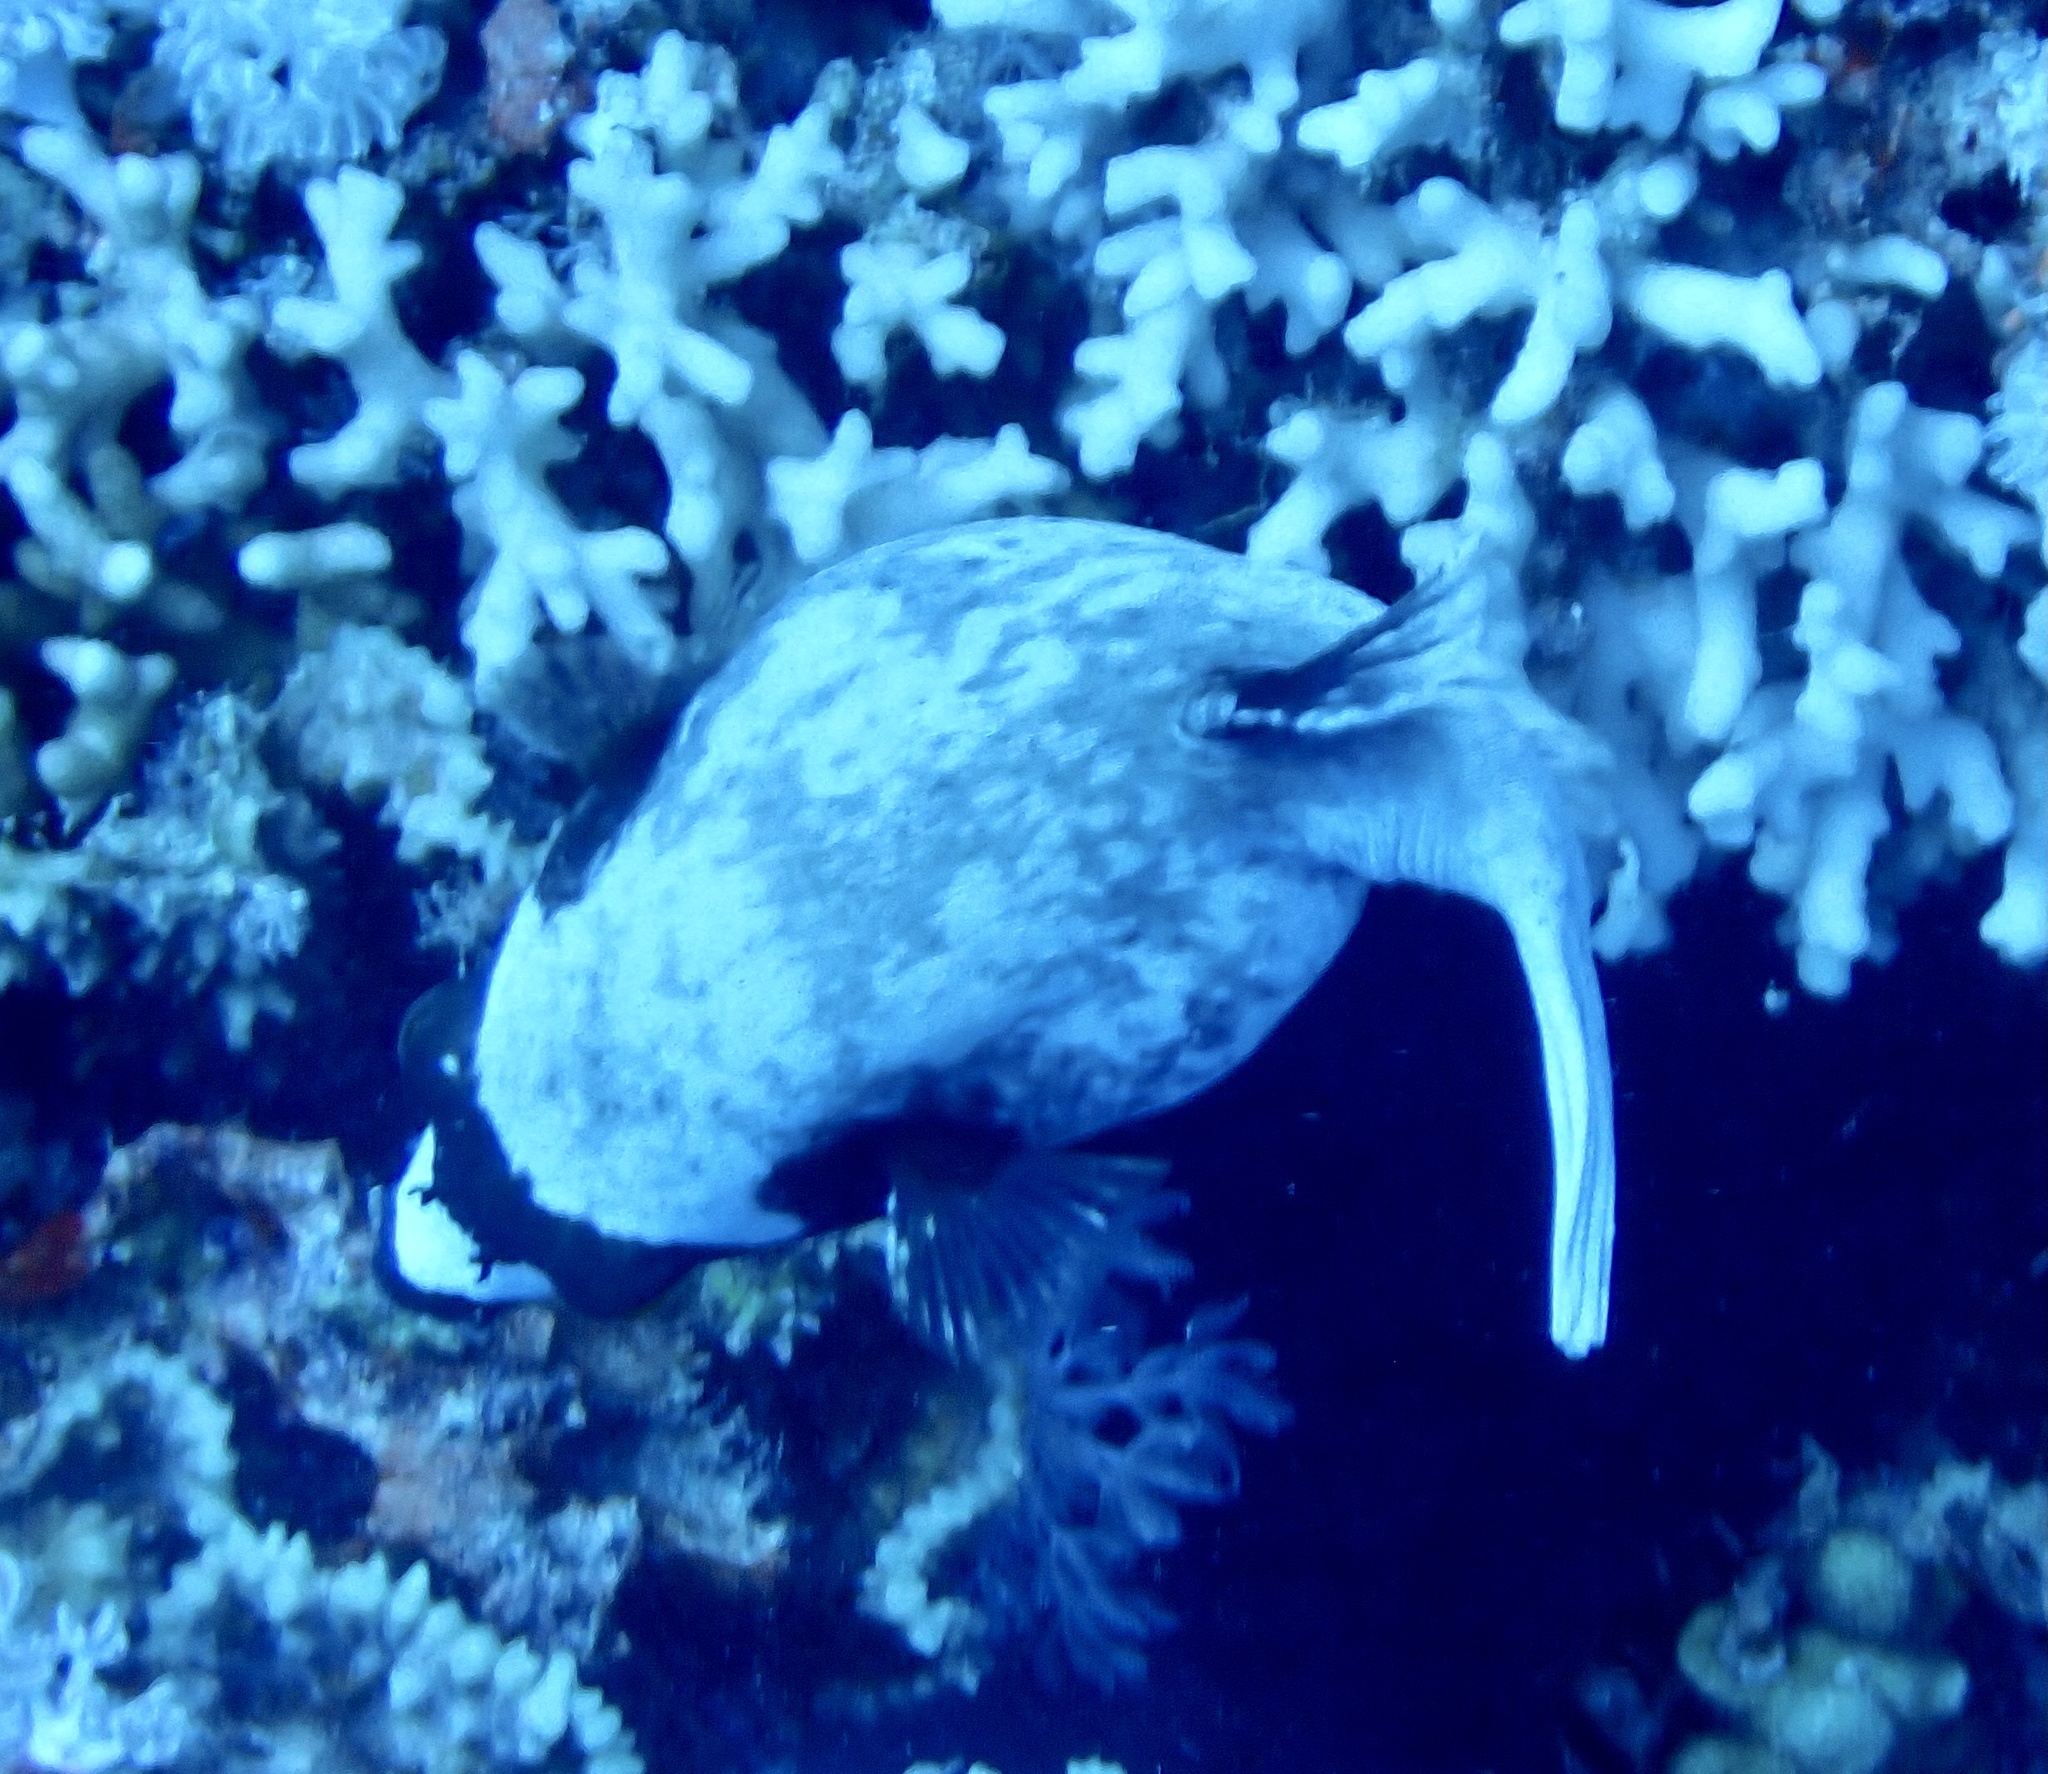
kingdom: Animalia
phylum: Chordata
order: Tetraodontiformes
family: Tetraodontidae
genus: Arothron
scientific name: Arothron diadematus
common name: Masked puffer
